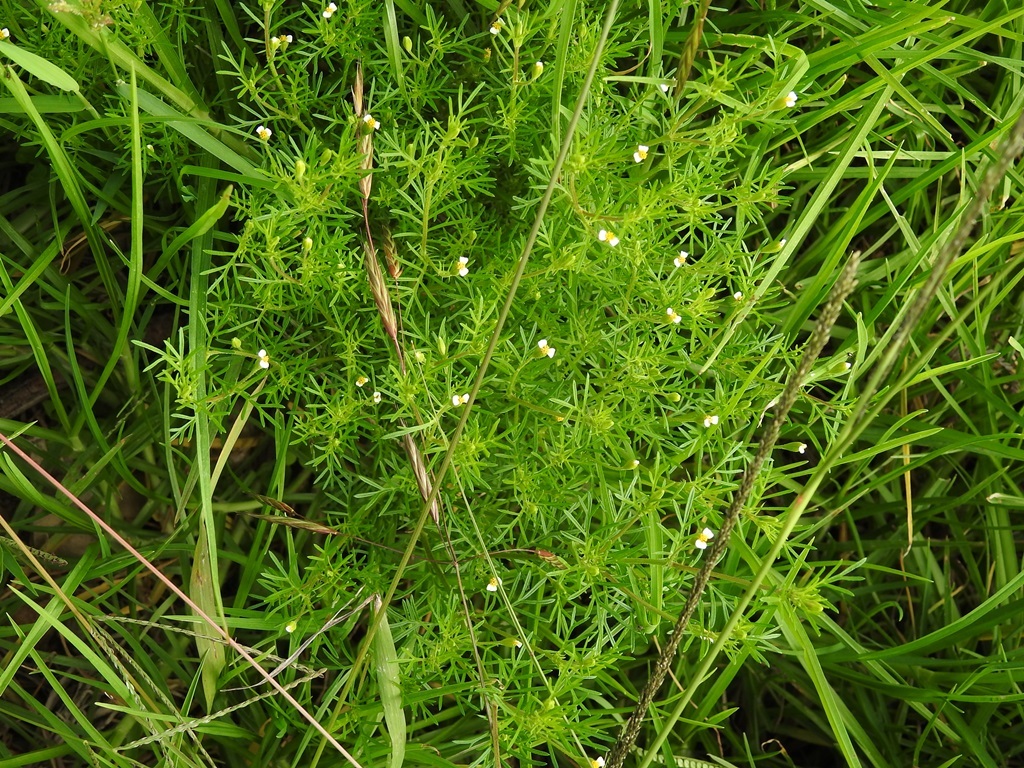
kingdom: Plantae
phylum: Tracheophyta
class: Magnoliopsida
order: Asterales
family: Asteraceae
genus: Tagetes
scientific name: Tagetes filifolia
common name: Lesser marigold
